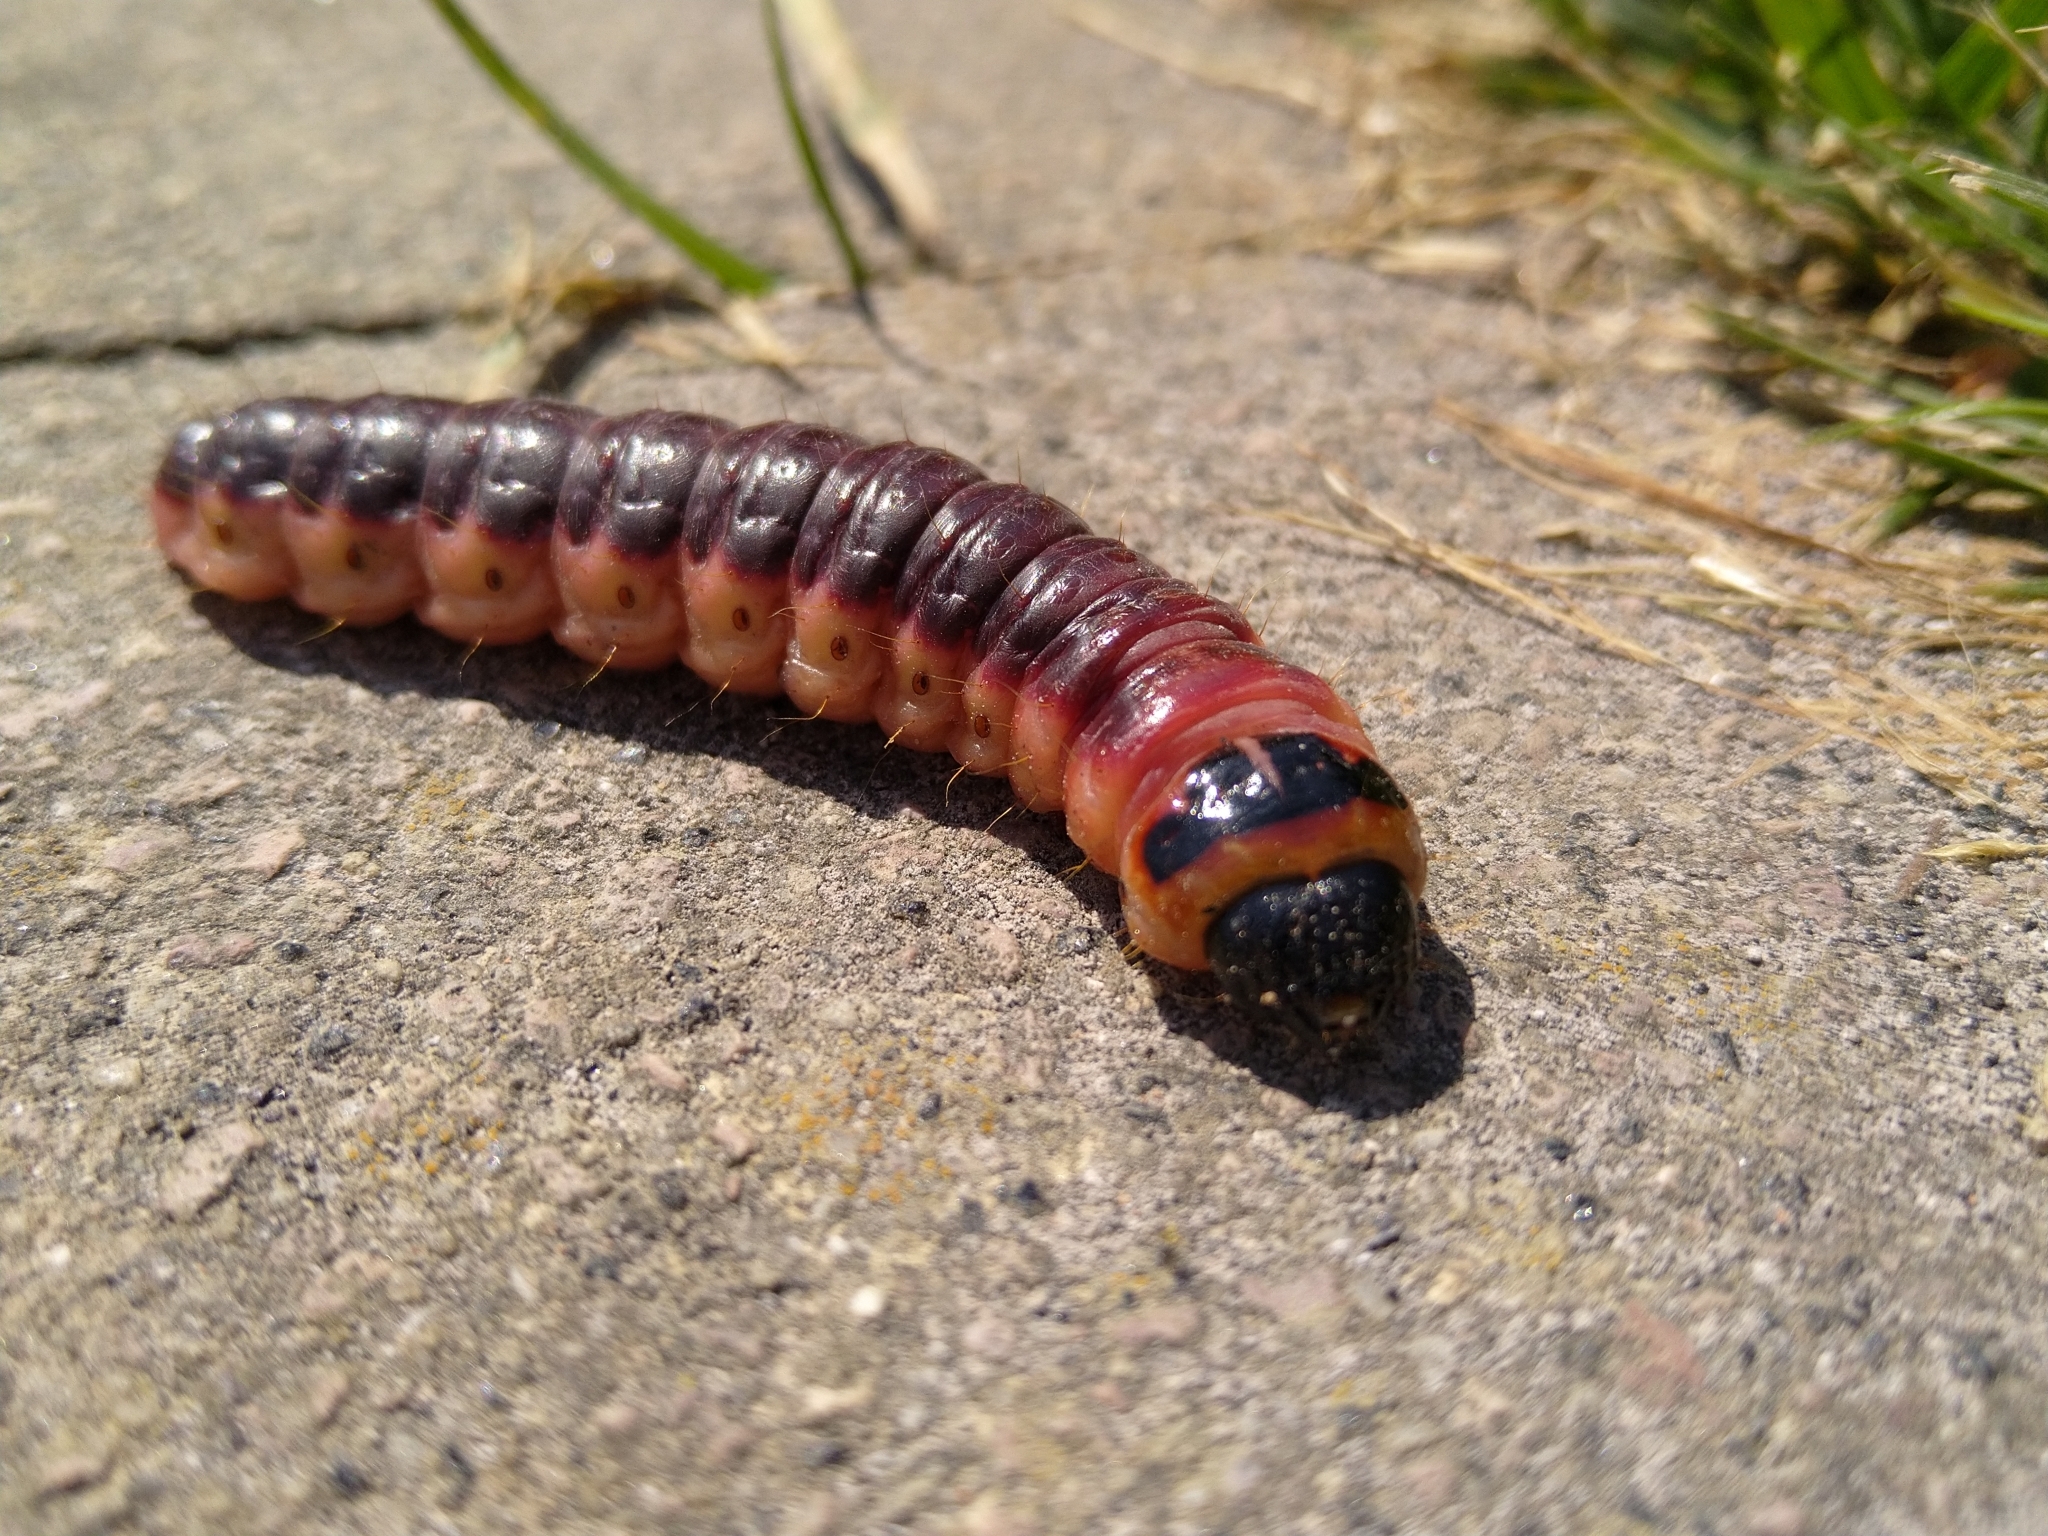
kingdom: Animalia
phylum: Arthropoda
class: Insecta
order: Lepidoptera
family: Cossidae
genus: Cossus
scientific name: Cossus cossus
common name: Goat moth
